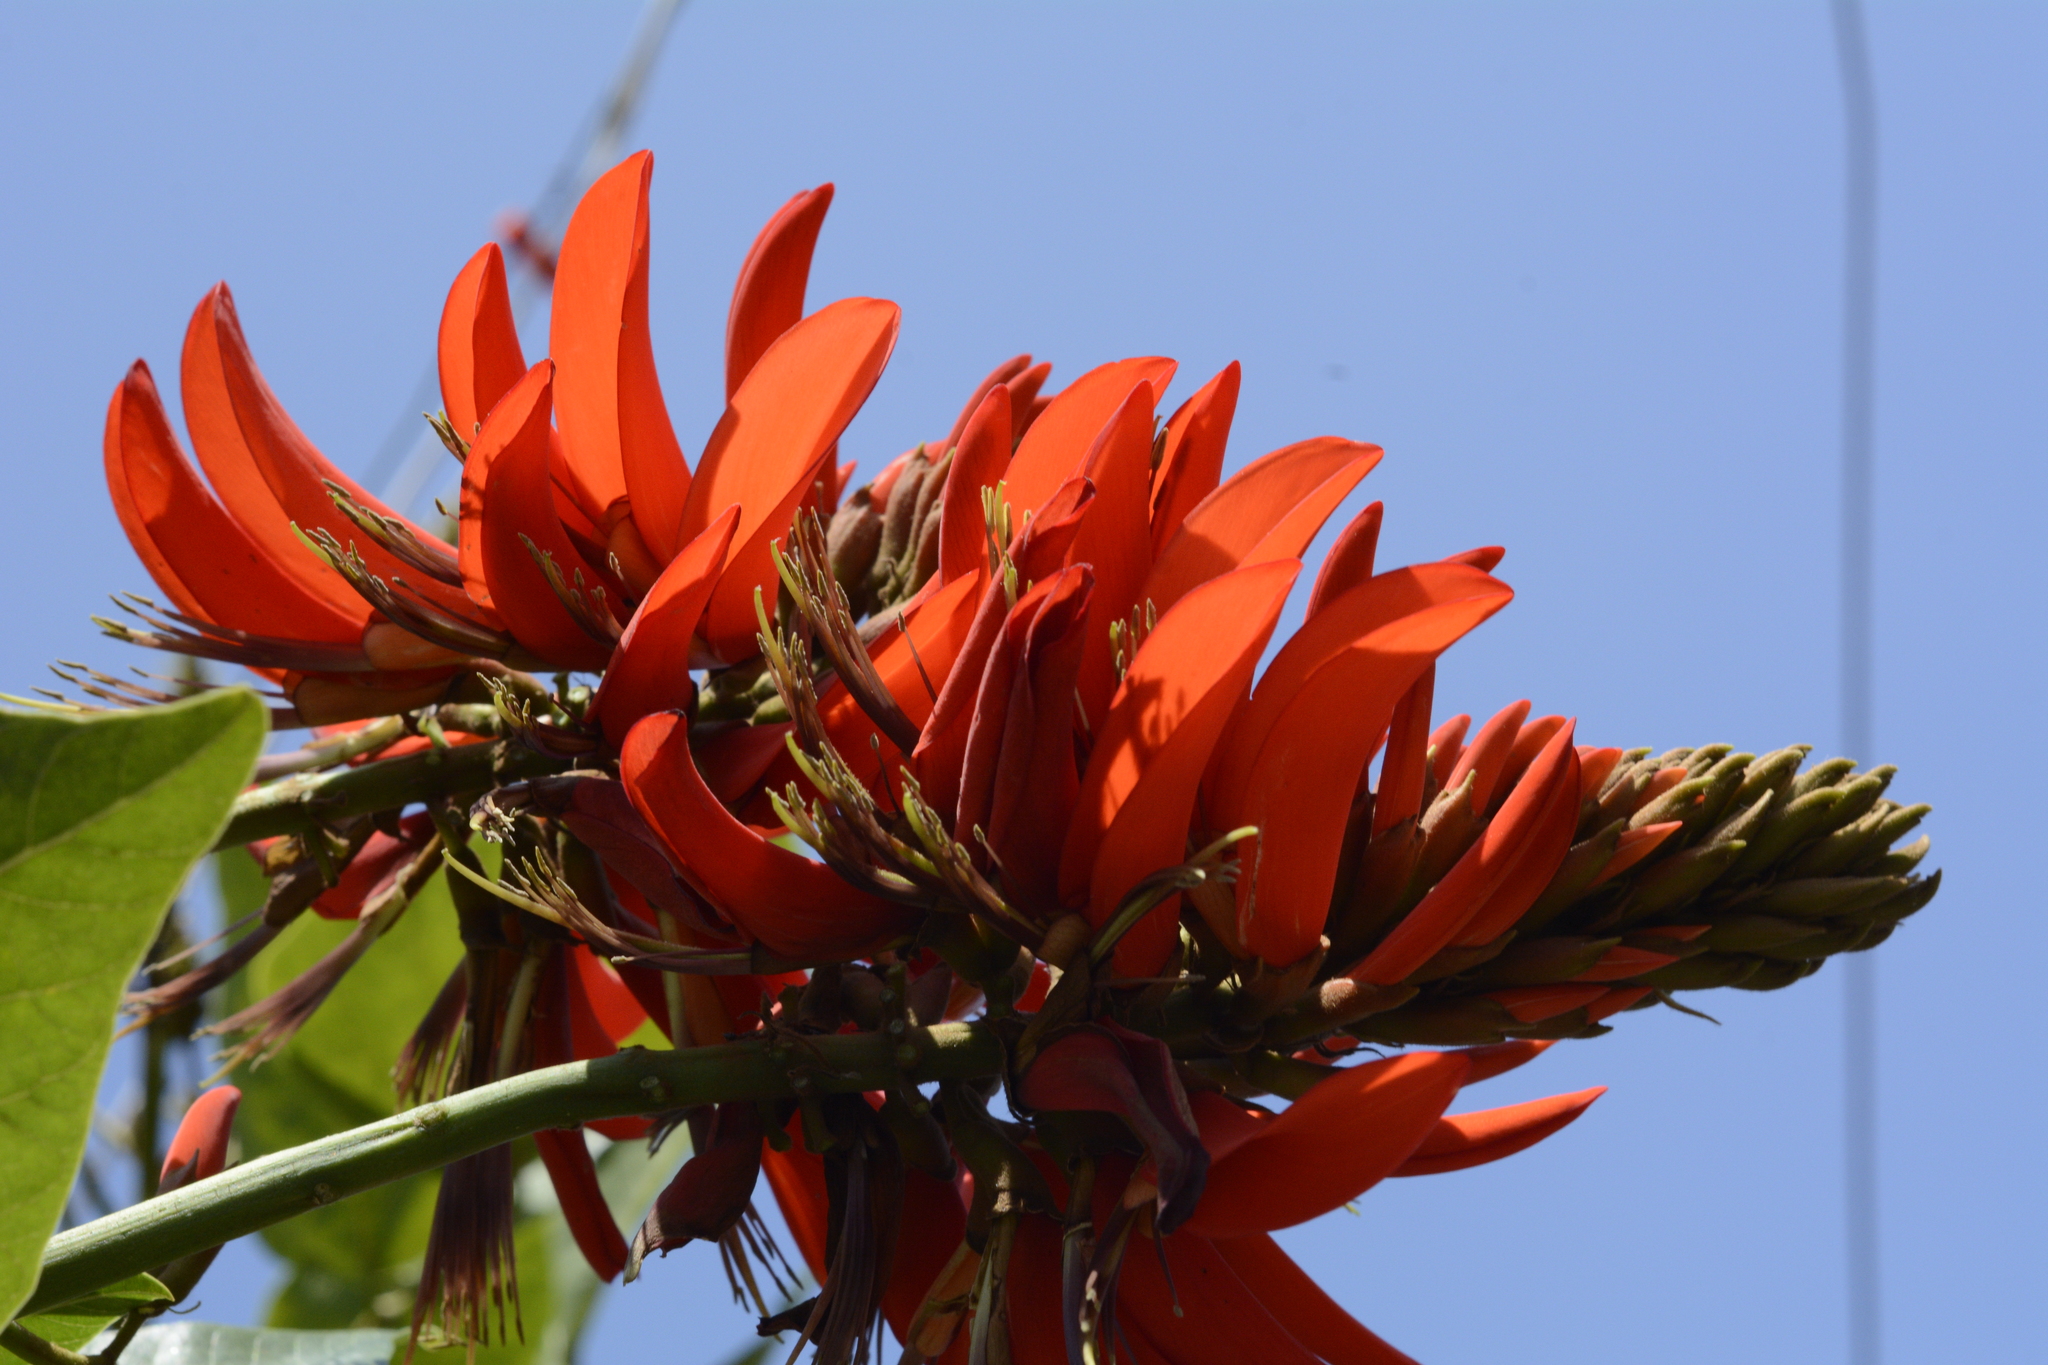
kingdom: Plantae
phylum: Tracheophyta
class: Magnoliopsida
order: Fabales
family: Fabaceae
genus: Erythrina
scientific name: Erythrina variegata
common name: Indian coral tree
